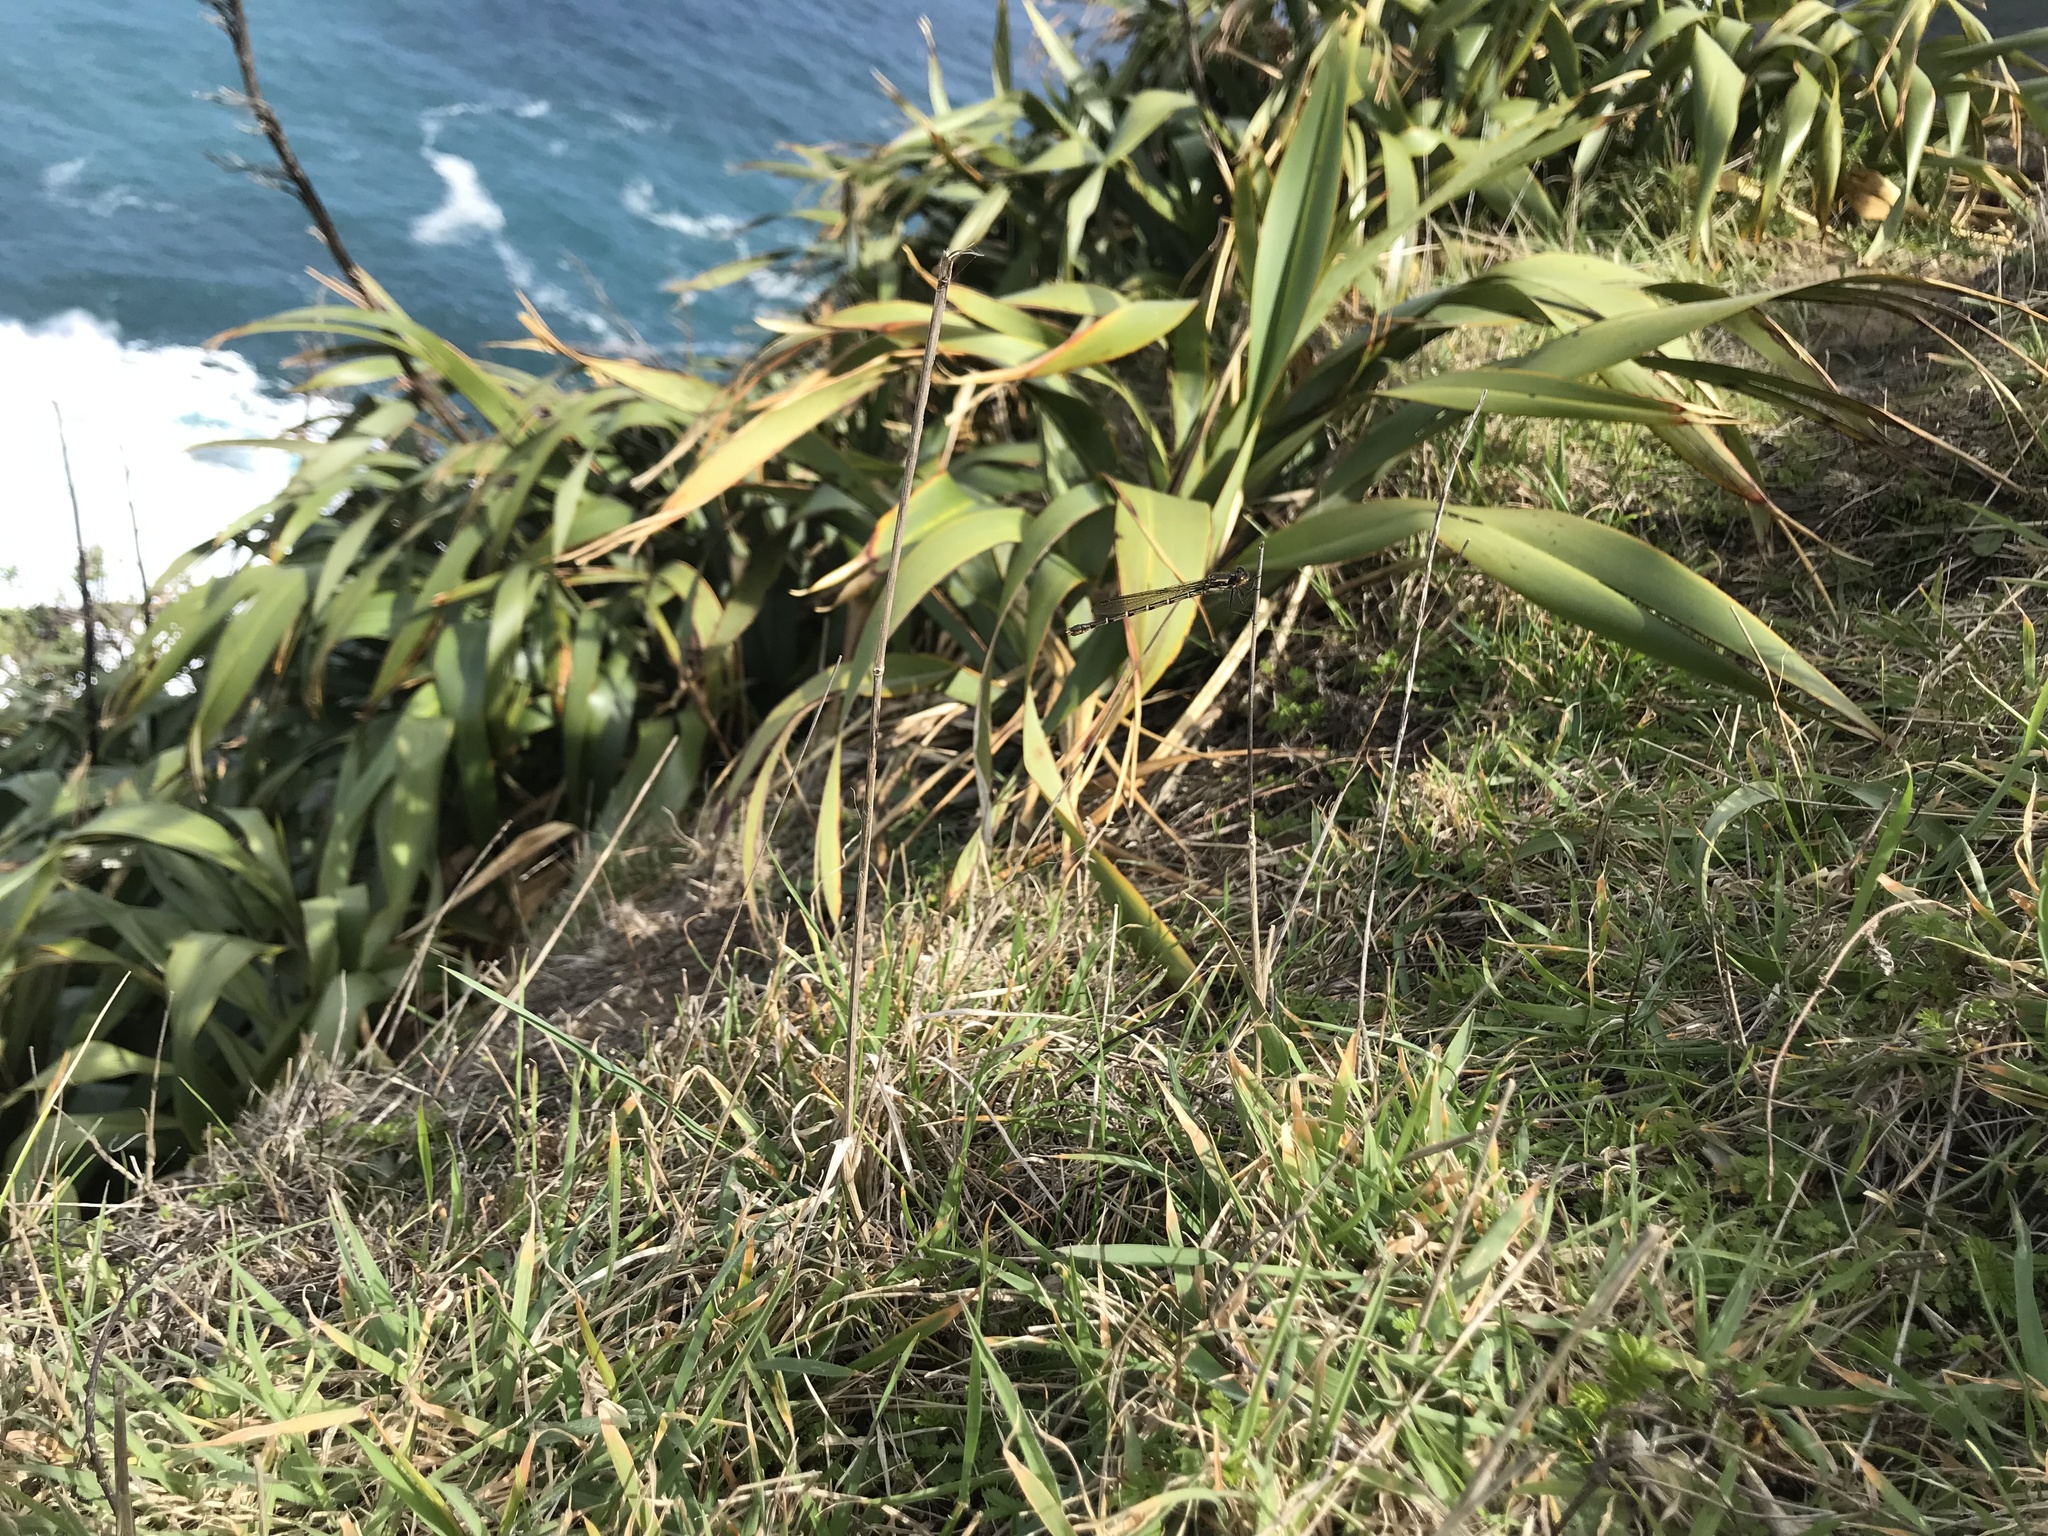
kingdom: Animalia
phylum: Arthropoda
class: Insecta
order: Odonata
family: Lestidae
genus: Austrolestes
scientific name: Austrolestes colensonis
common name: Blue damselfly
